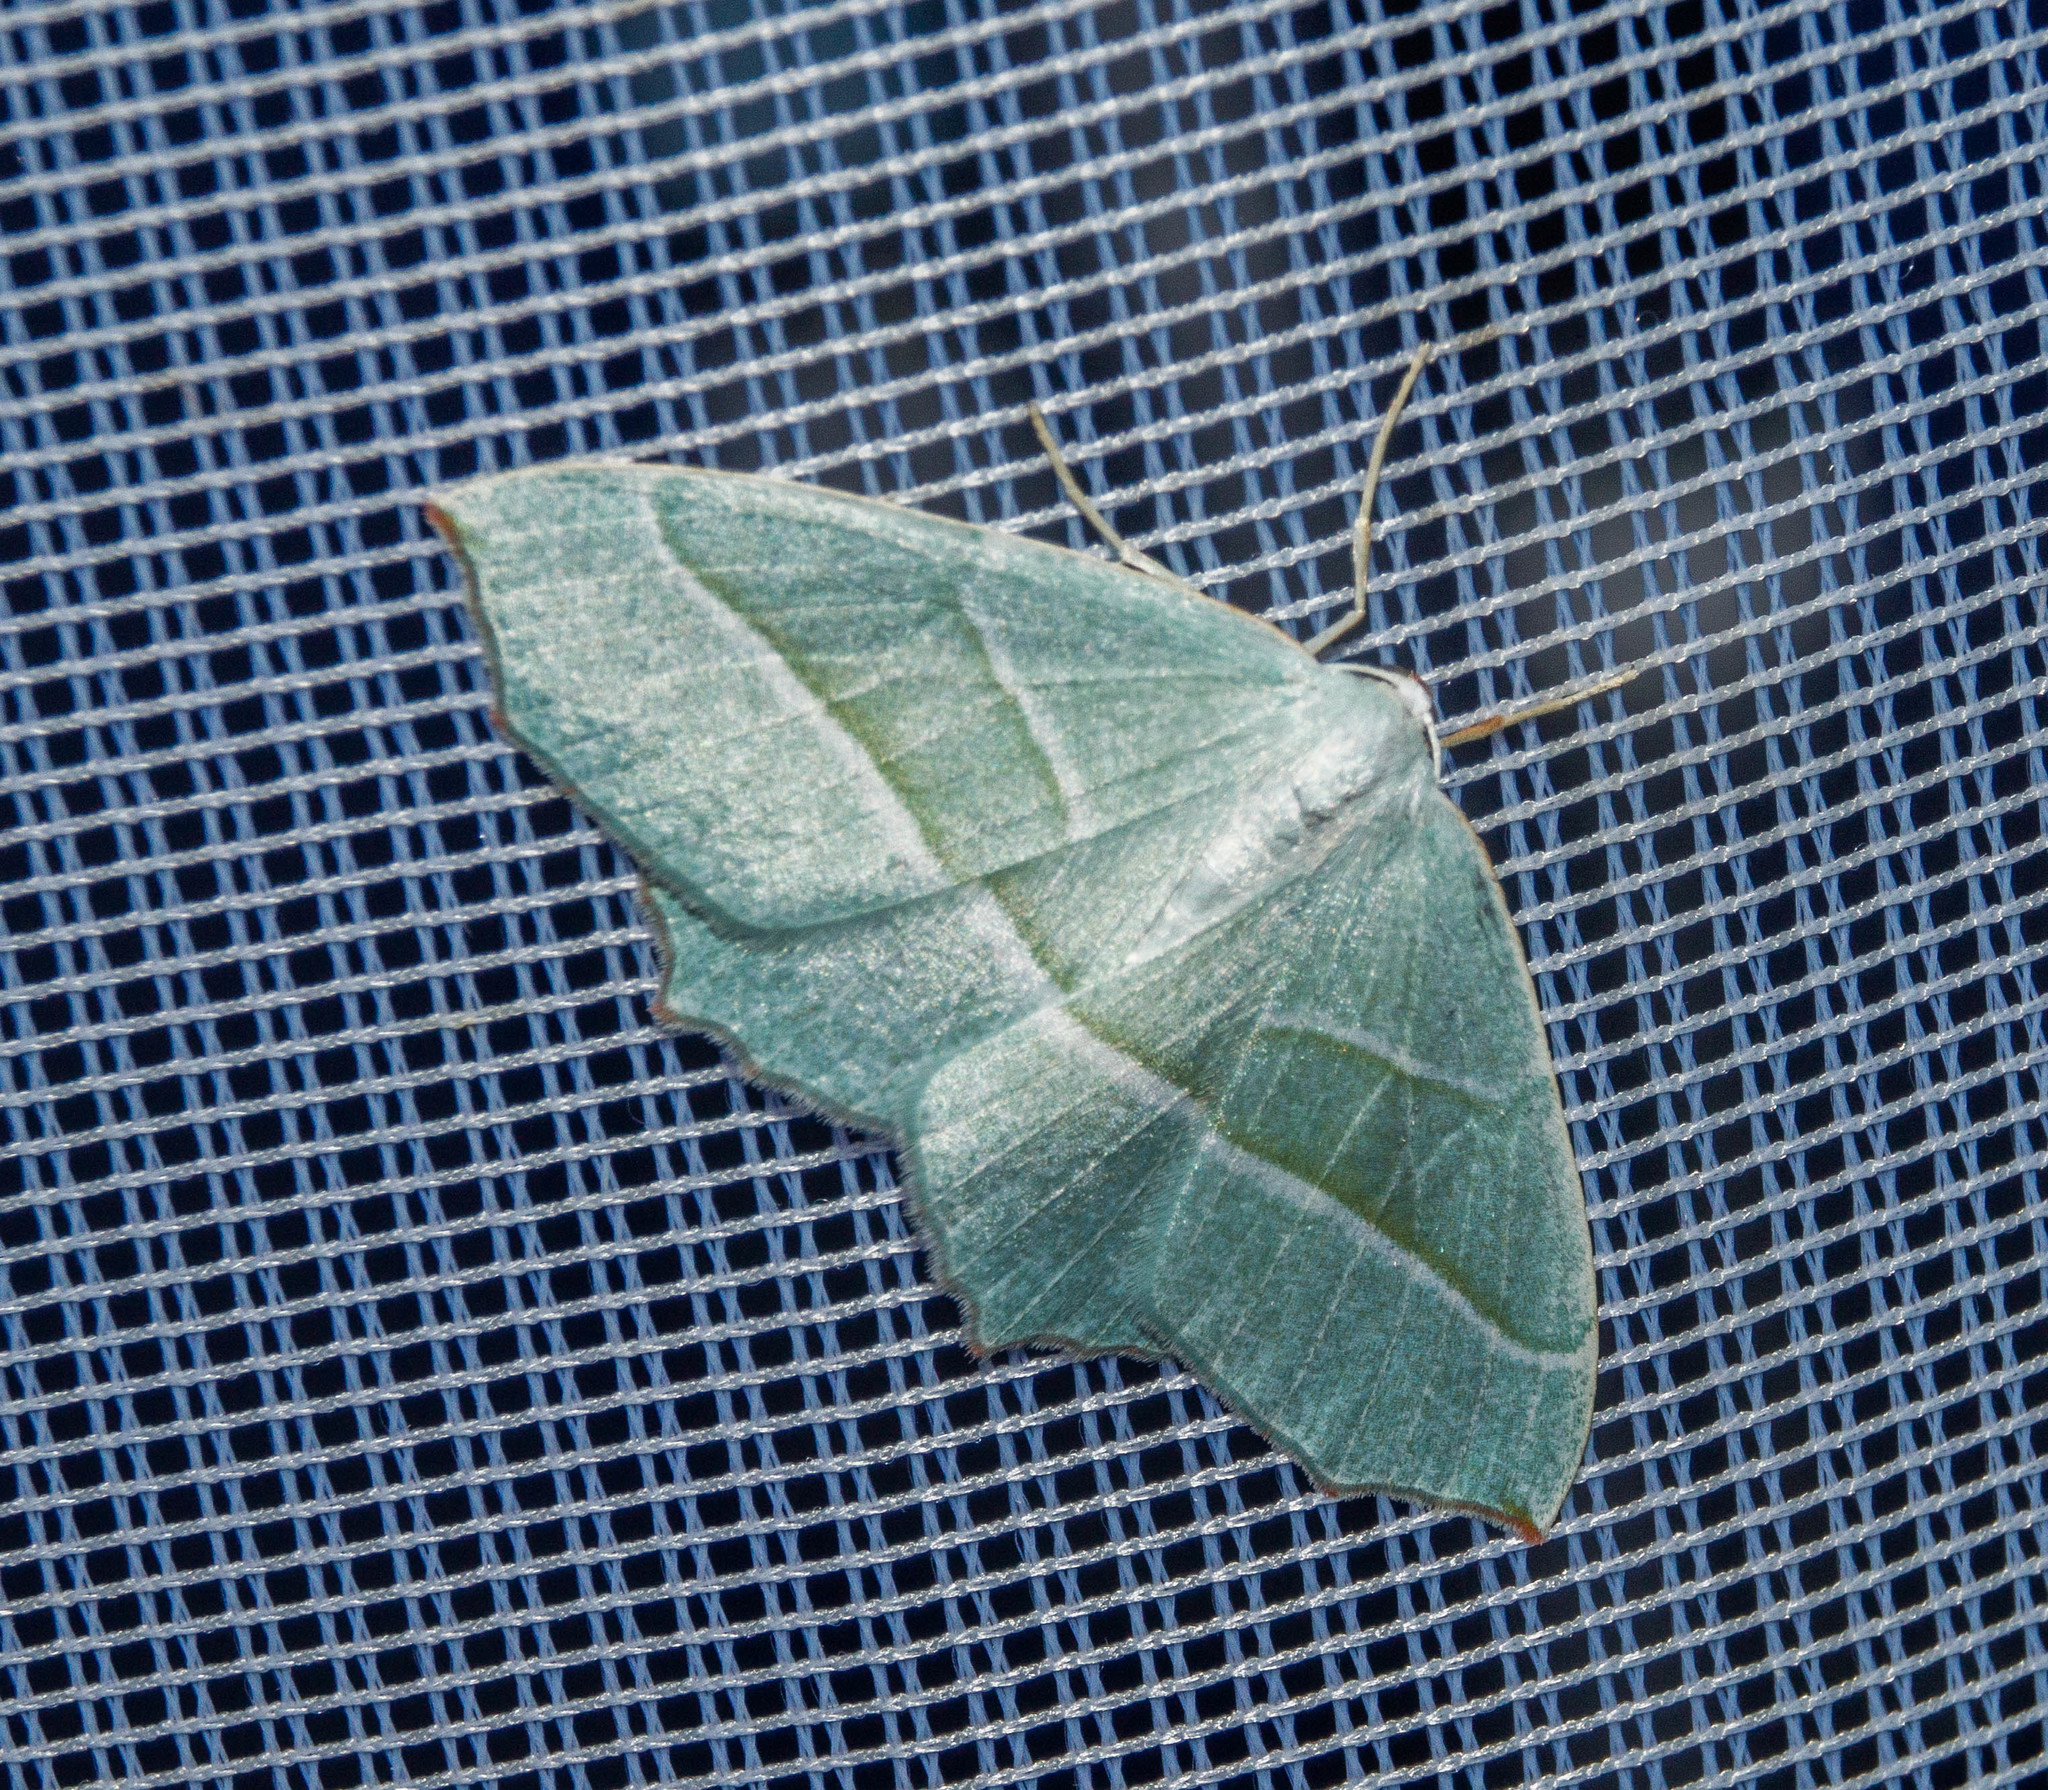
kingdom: Animalia
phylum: Arthropoda
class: Insecta
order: Lepidoptera
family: Geometridae
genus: Campaea
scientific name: Campaea margaritaria
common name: Light emerald
